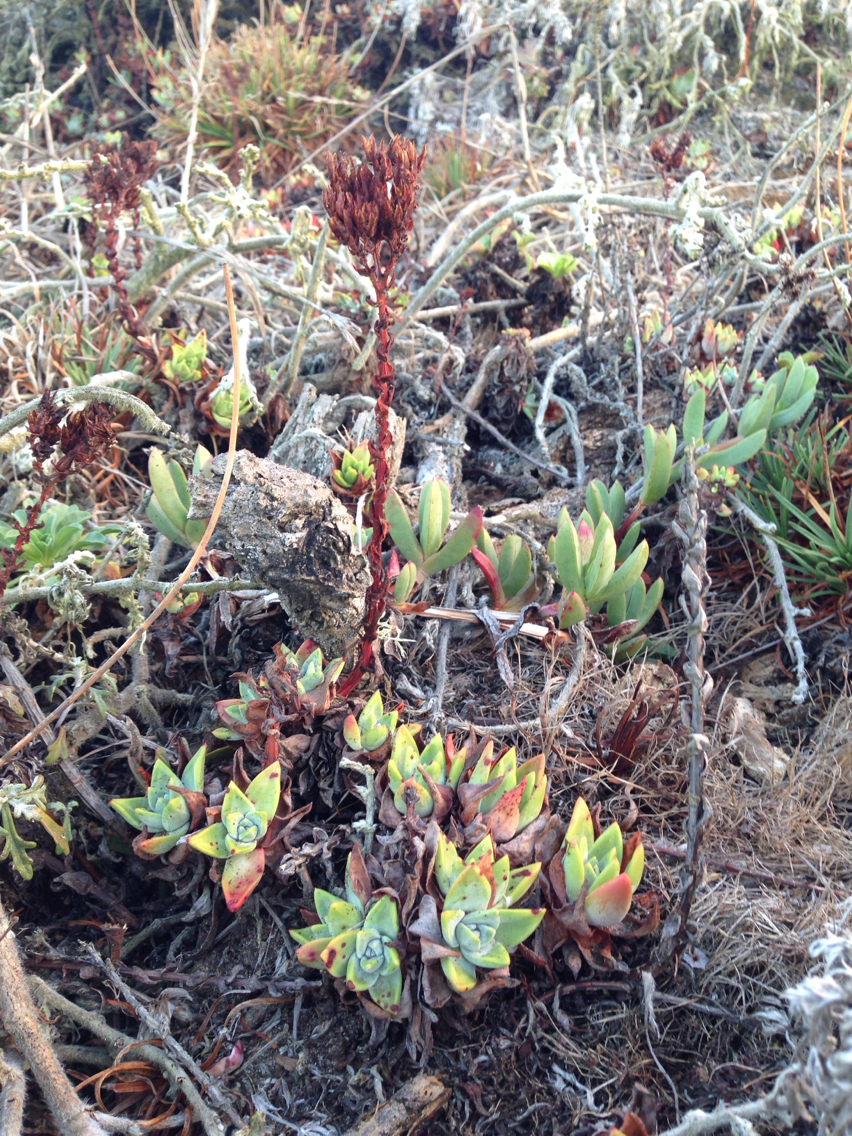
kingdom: Plantae
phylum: Tracheophyta
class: Magnoliopsida
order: Saxifragales
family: Crassulaceae
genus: Dudleya
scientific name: Dudleya farinosa
